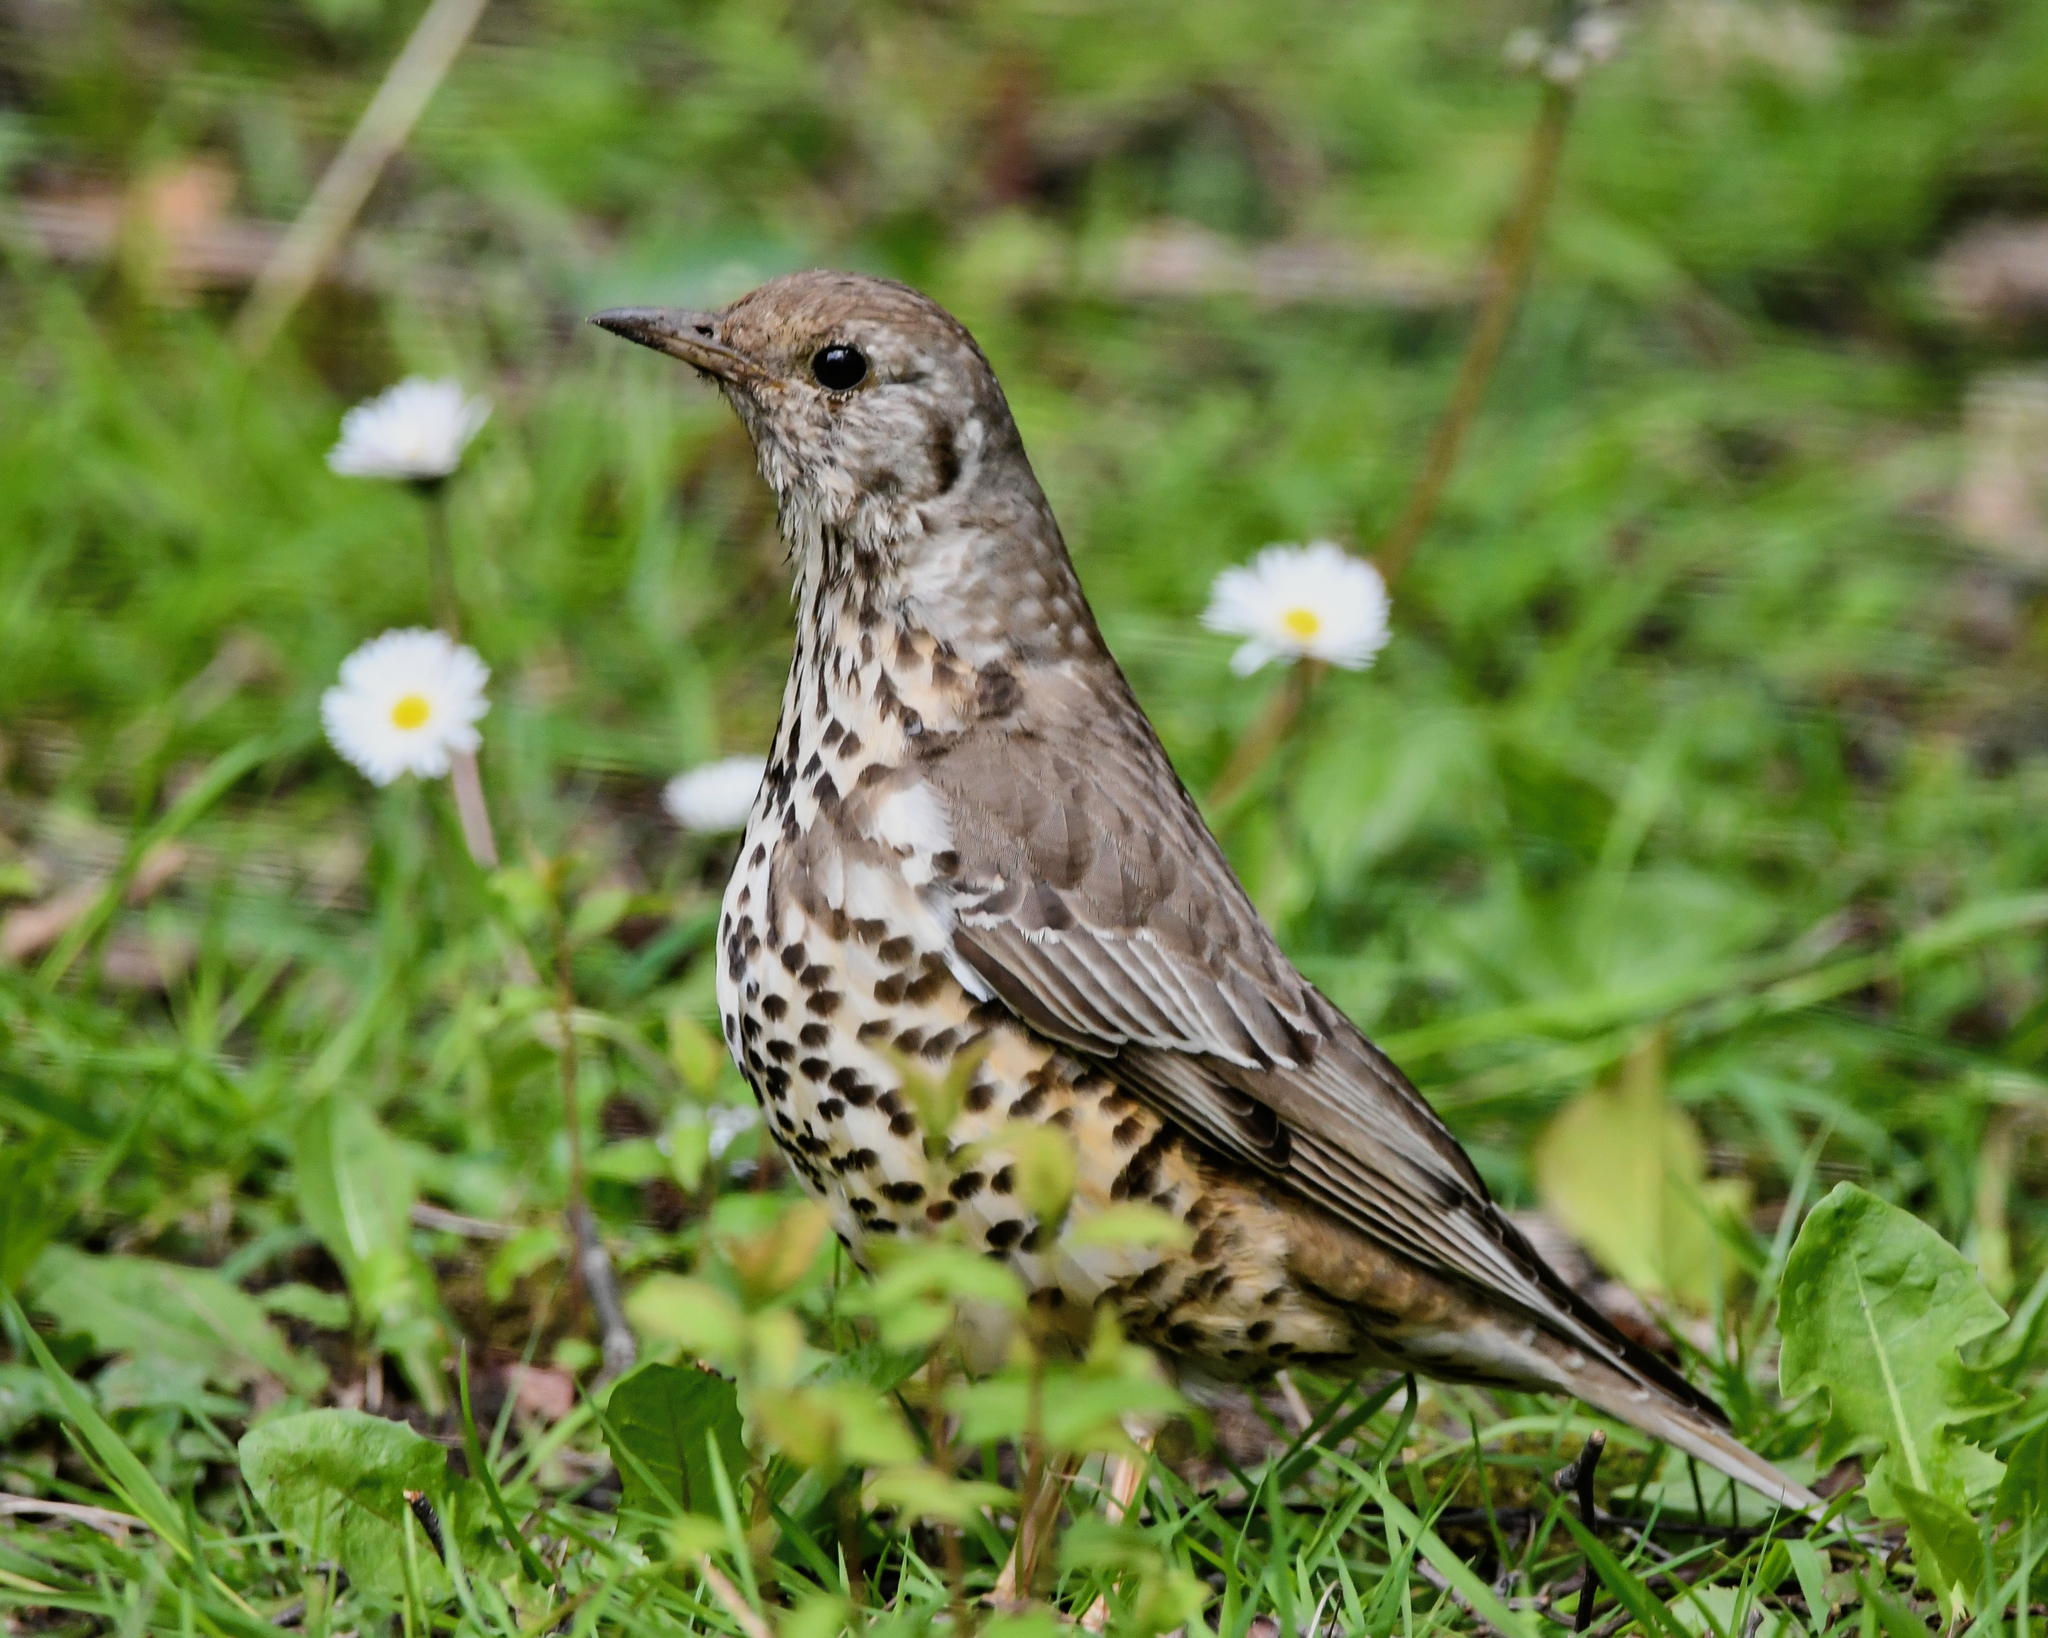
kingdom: Animalia
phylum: Chordata
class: Aves
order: Passeriformes
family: Turdidae
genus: Turdus
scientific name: Turdus viscivorus
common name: Mistle thrush
